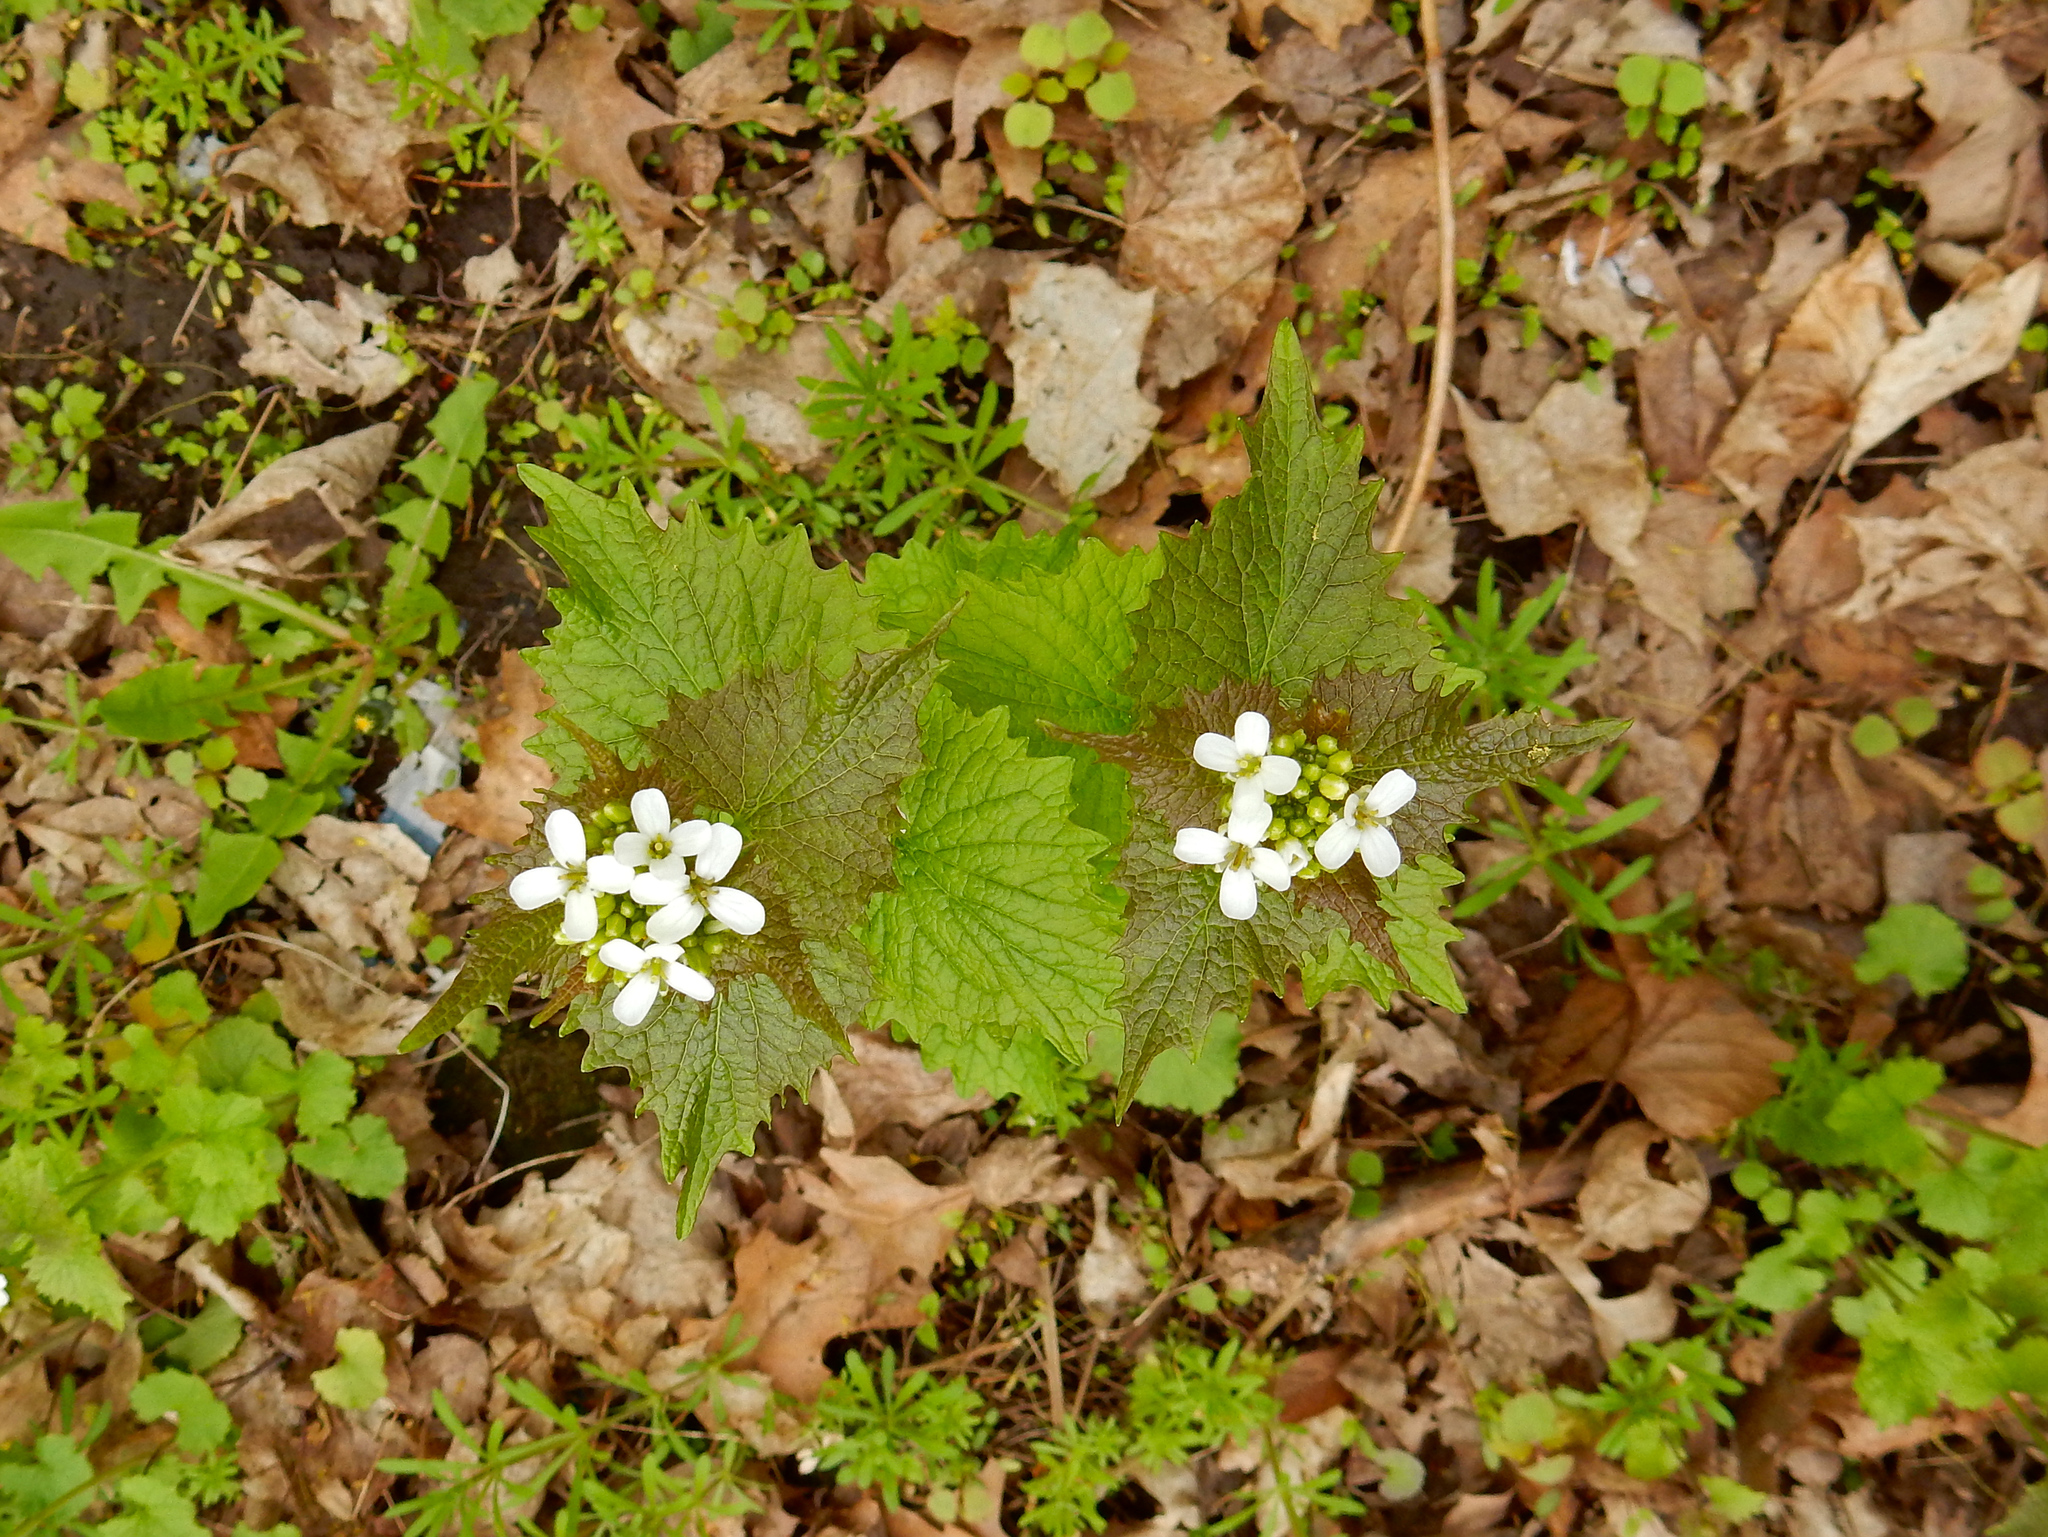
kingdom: Plantae
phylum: Tracheophyta
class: Magnoliopsida
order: Brassicales
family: Brassicaceae
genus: Alliaria
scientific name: Alliaria petiolata
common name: Garlic mustard
